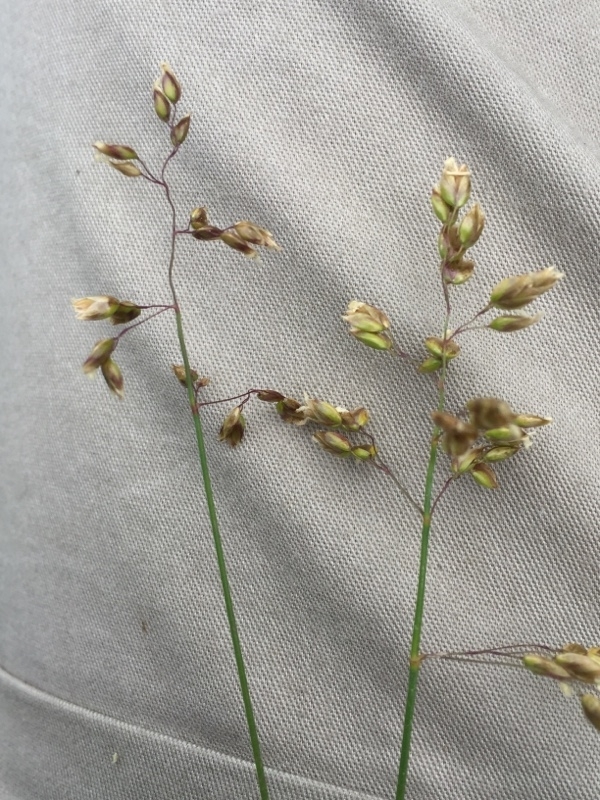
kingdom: Plantae
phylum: Tracheophyta
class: Liliopsida
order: Poales
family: Poaceae
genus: Anthoxanthum
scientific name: Anthoxanthum nitens
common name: Holy grass
